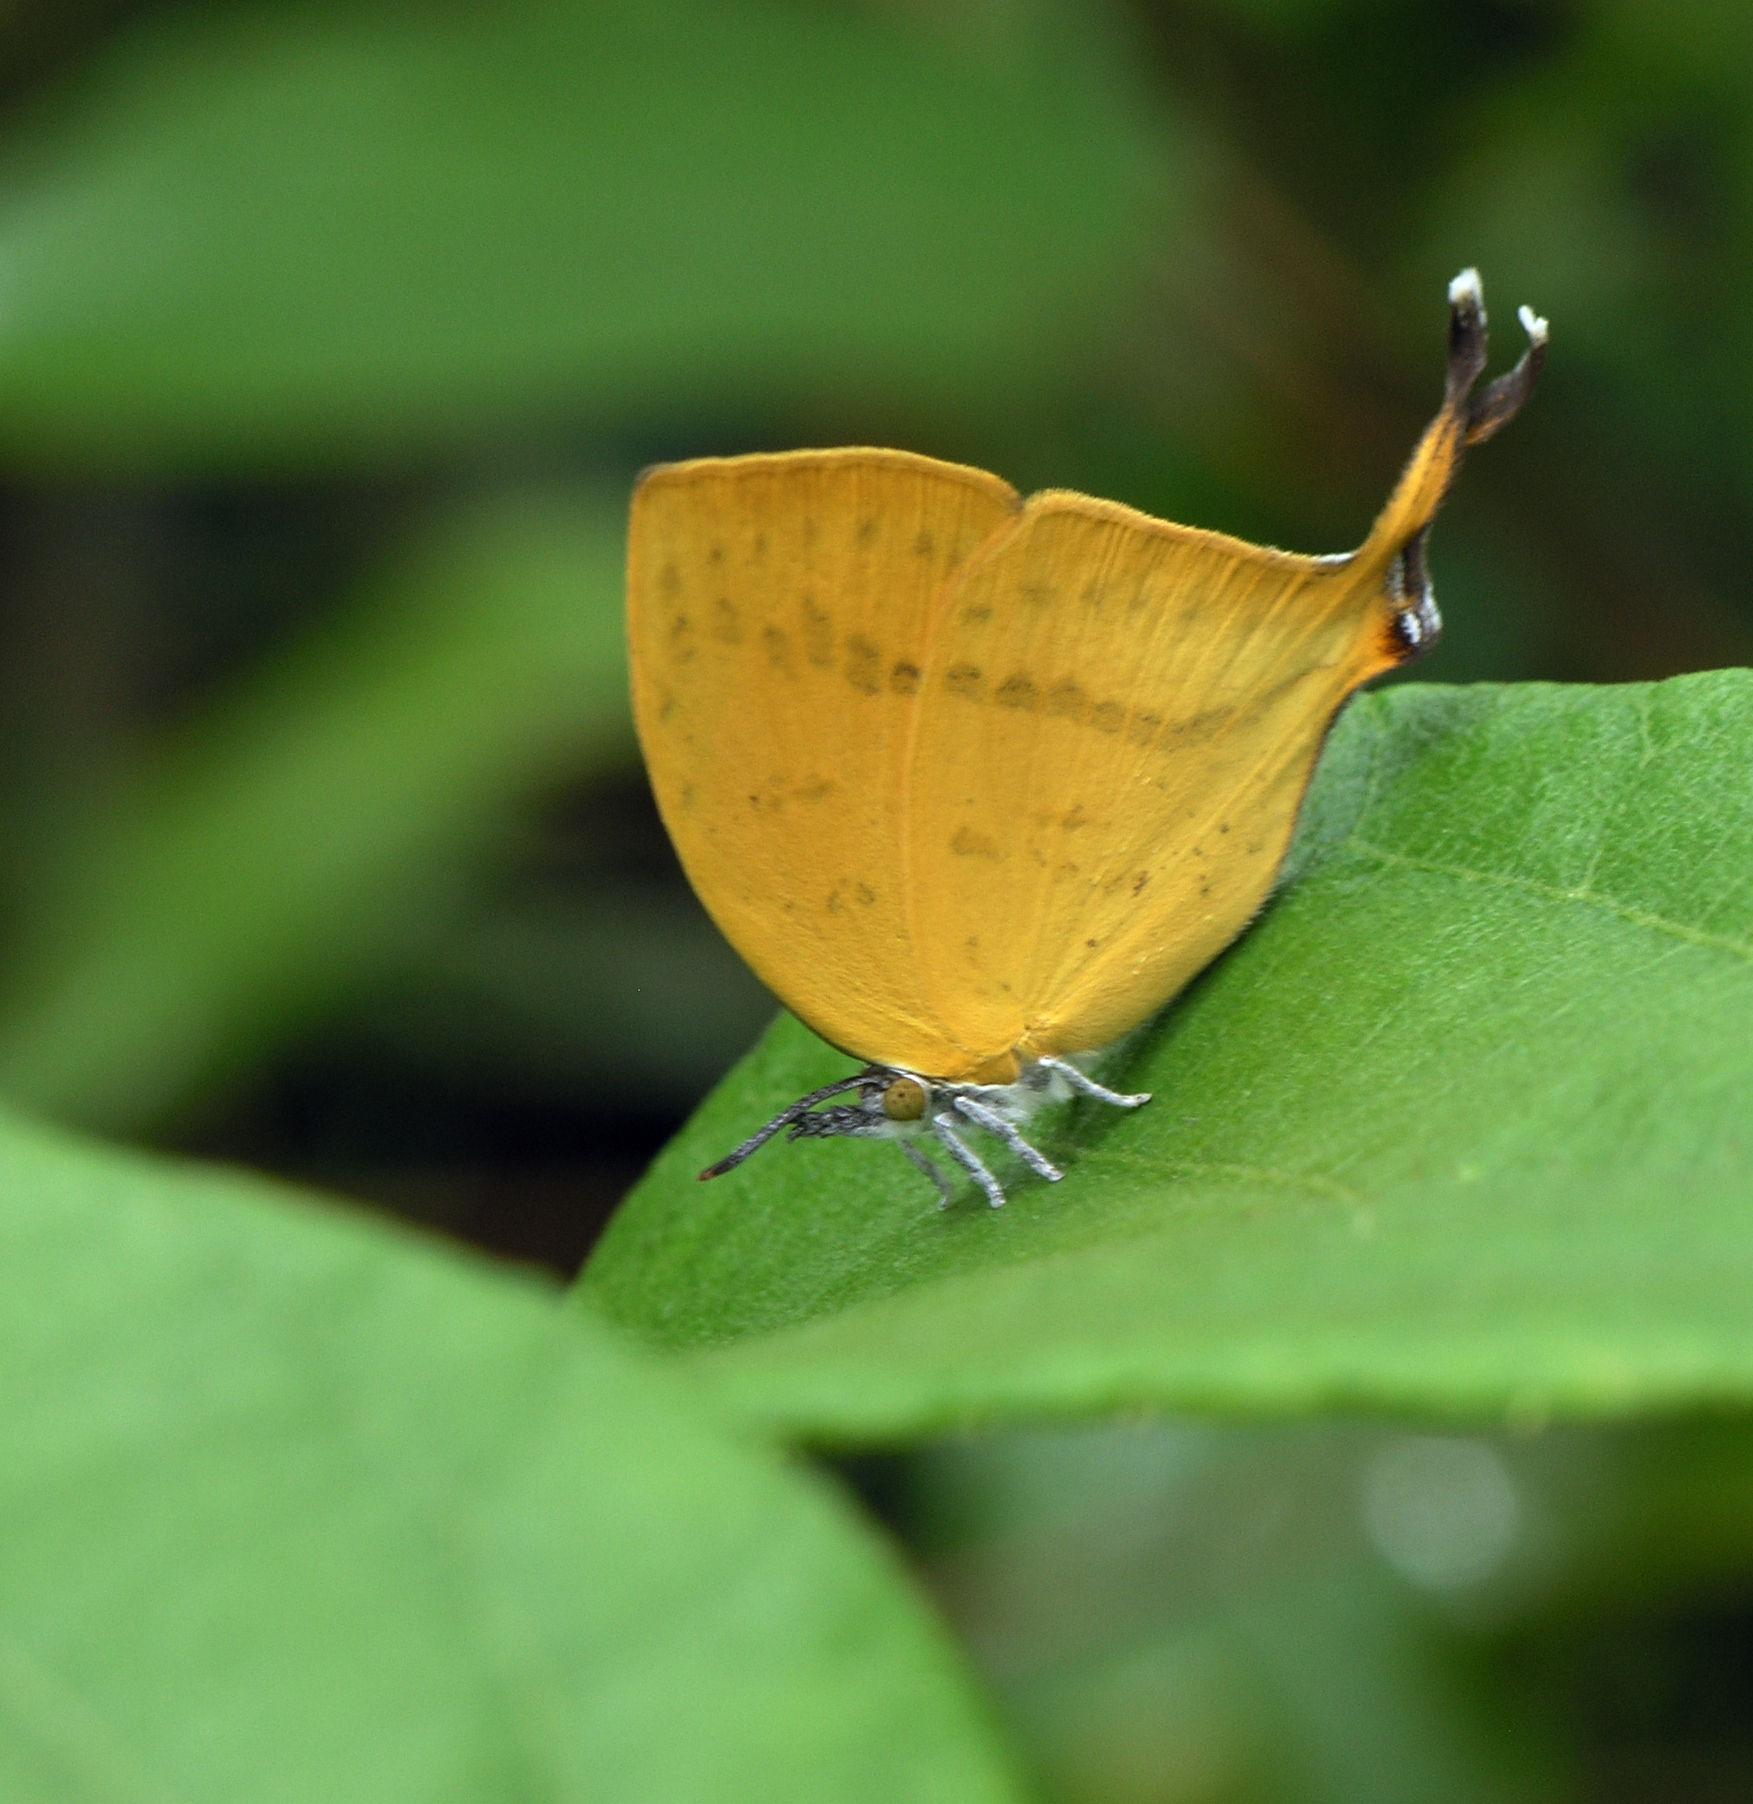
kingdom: Animalia
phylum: Arthropoda
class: Insecta
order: Lepidoptera
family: Lycaenidae
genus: Loxura
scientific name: Loxura atymnus
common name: Common yamfly
